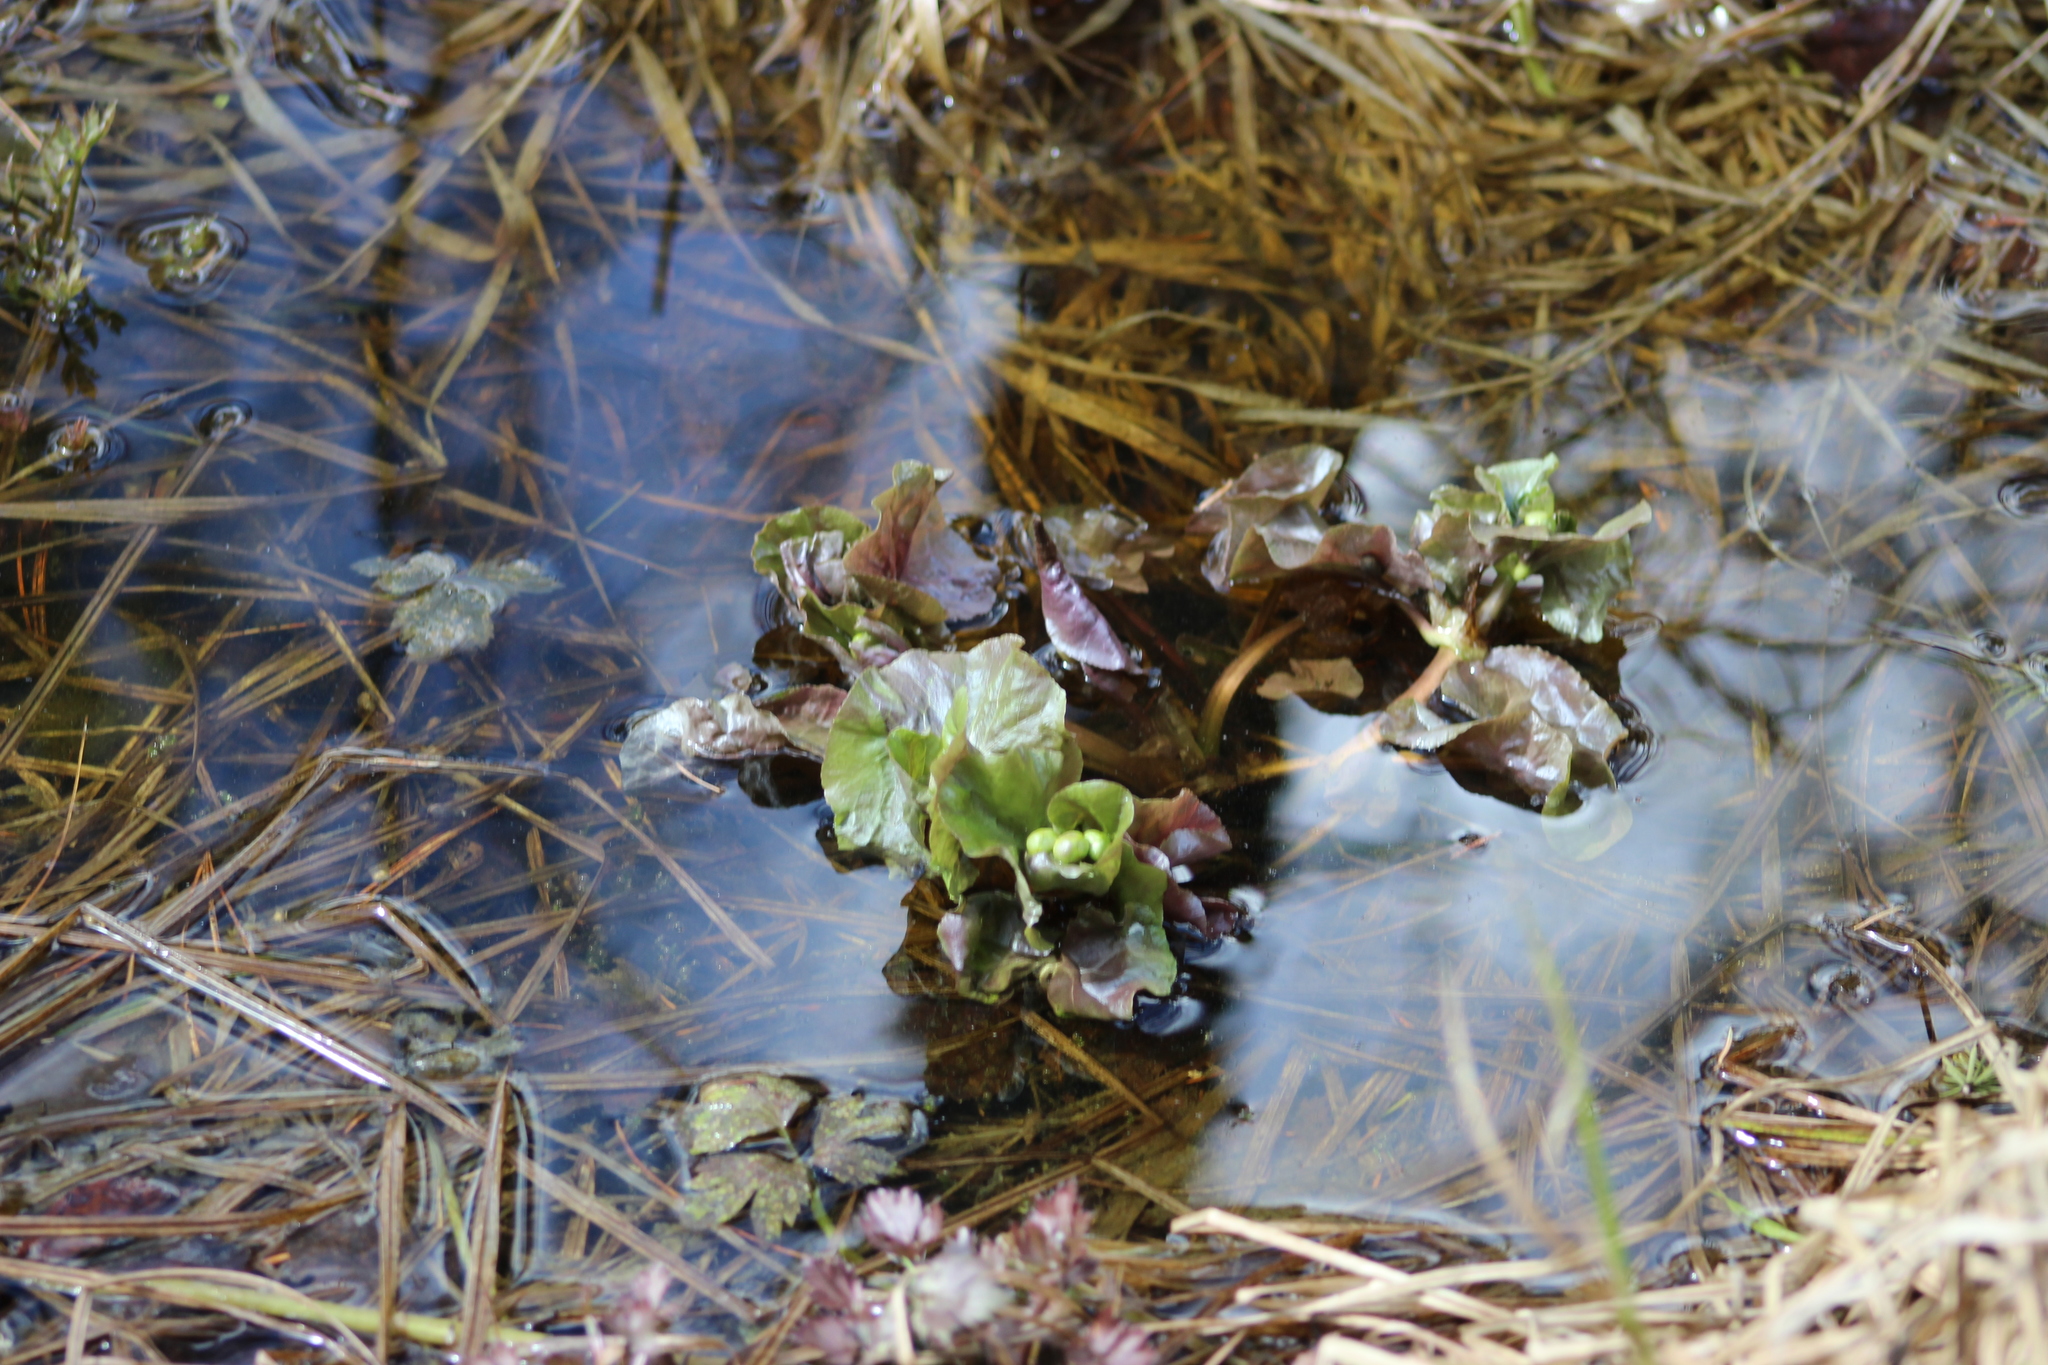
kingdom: Plantae
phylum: Tracheophyta
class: Magnoliopsida
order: Ranunculales
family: Ranunculaceae
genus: Caltha
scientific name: Caltha palustris
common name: Marsh marigold
